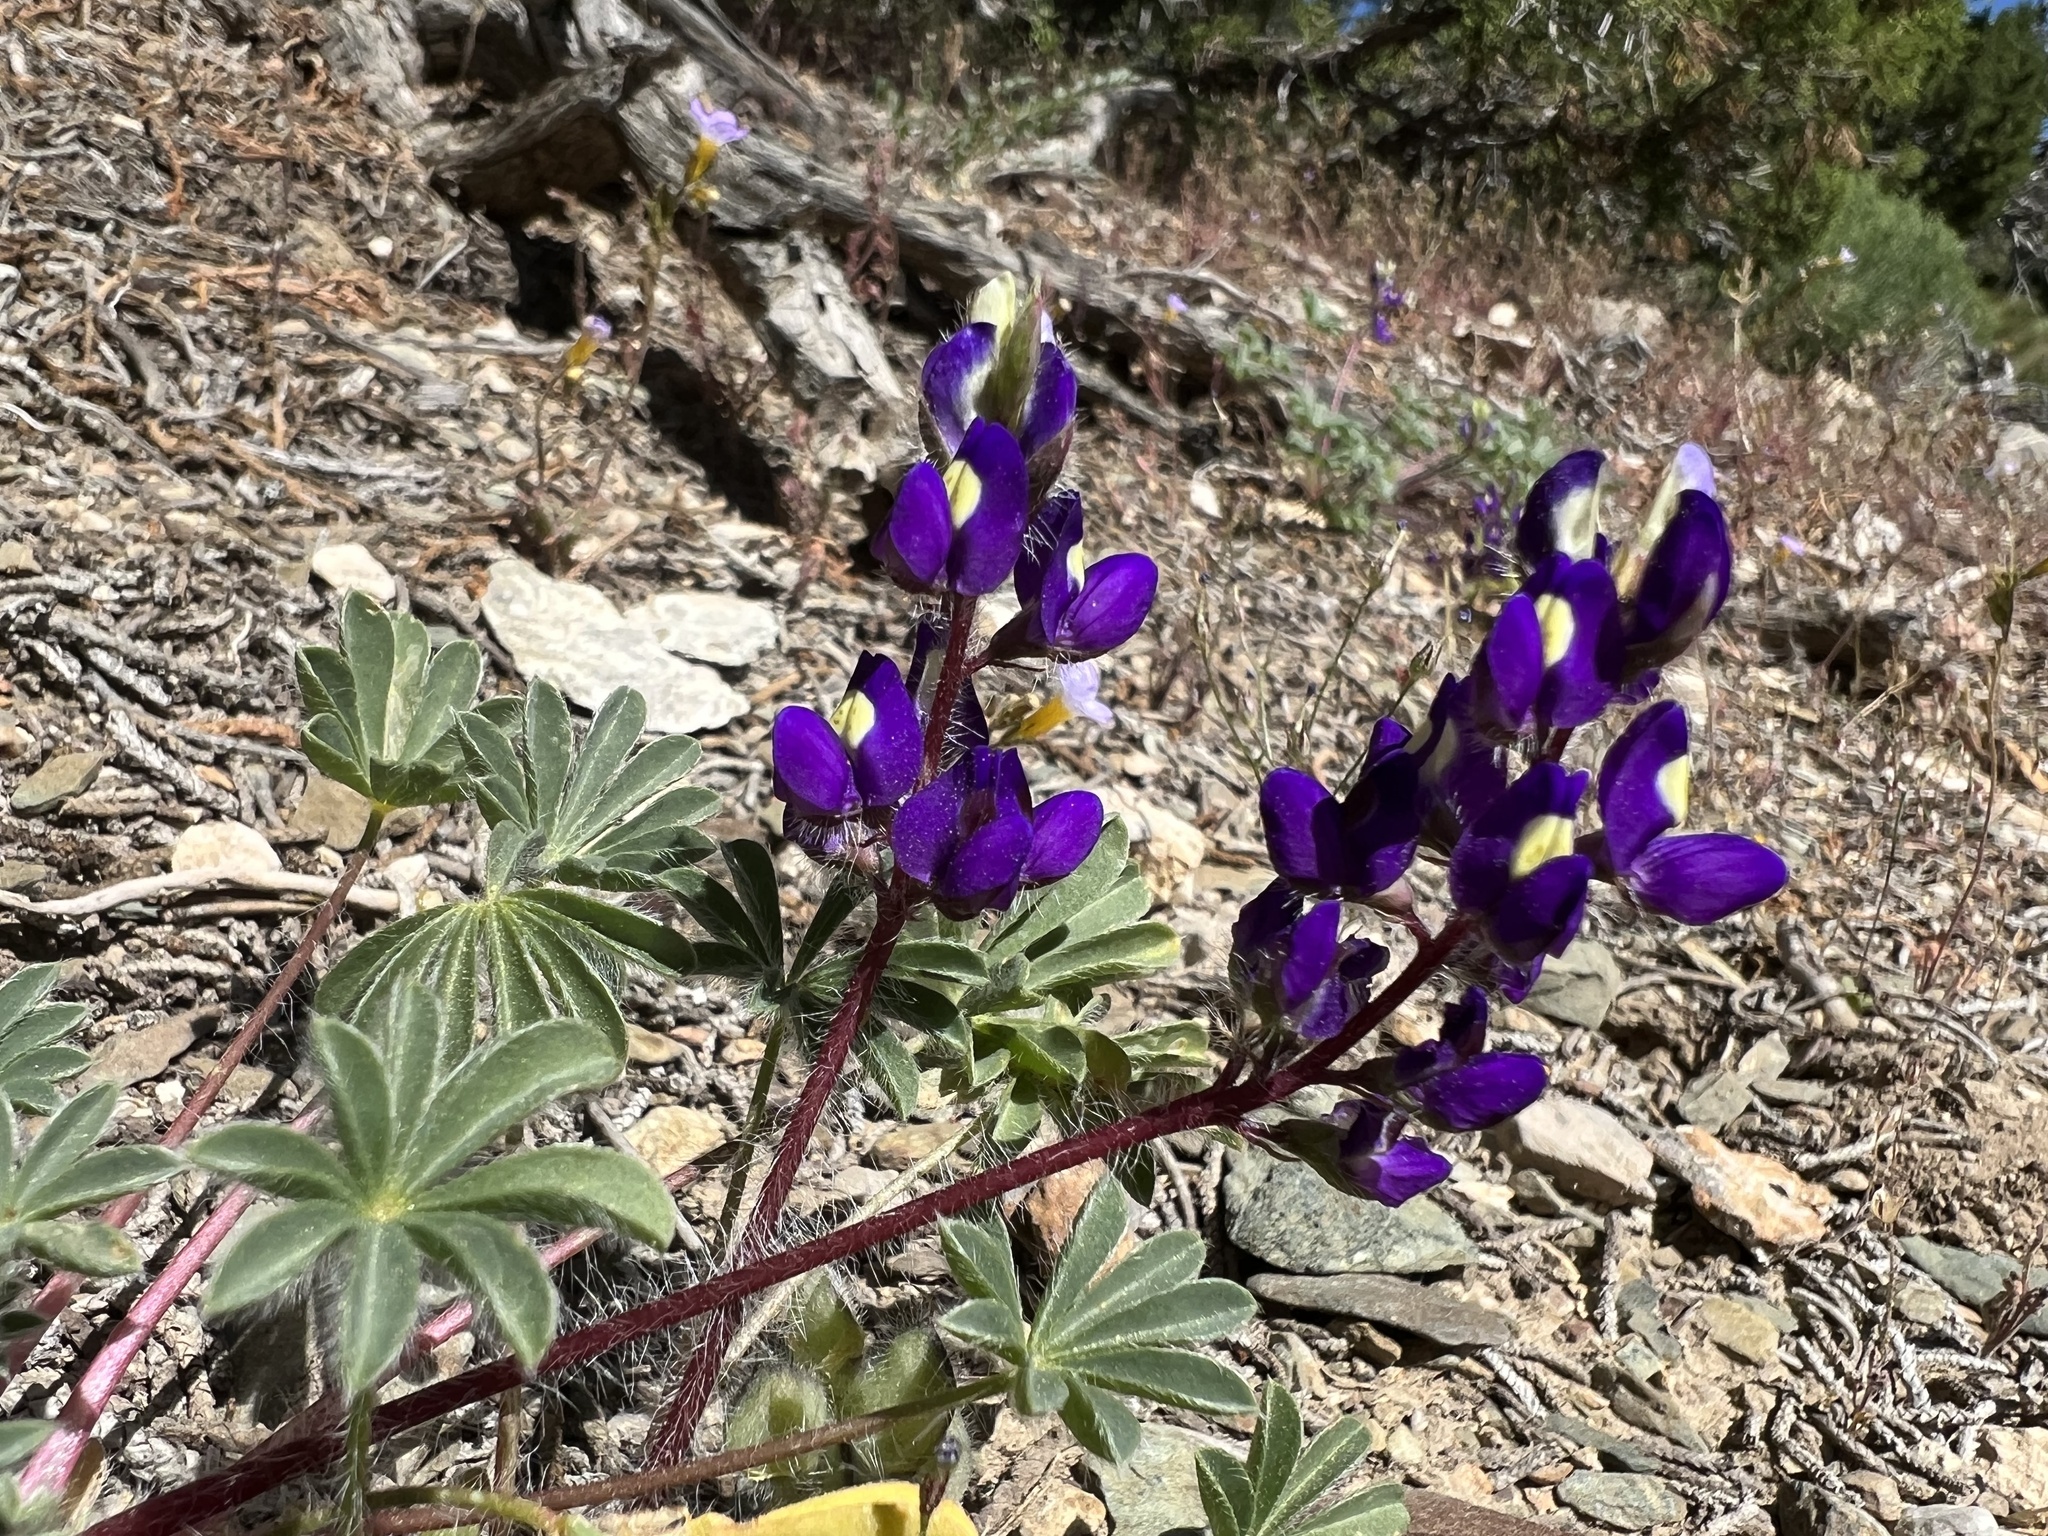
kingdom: Plantae
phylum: Tracheophyta
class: Magnoliopsida
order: Fabales
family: Fabaceae
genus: Lupinus
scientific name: Lupinus flavoculatus
